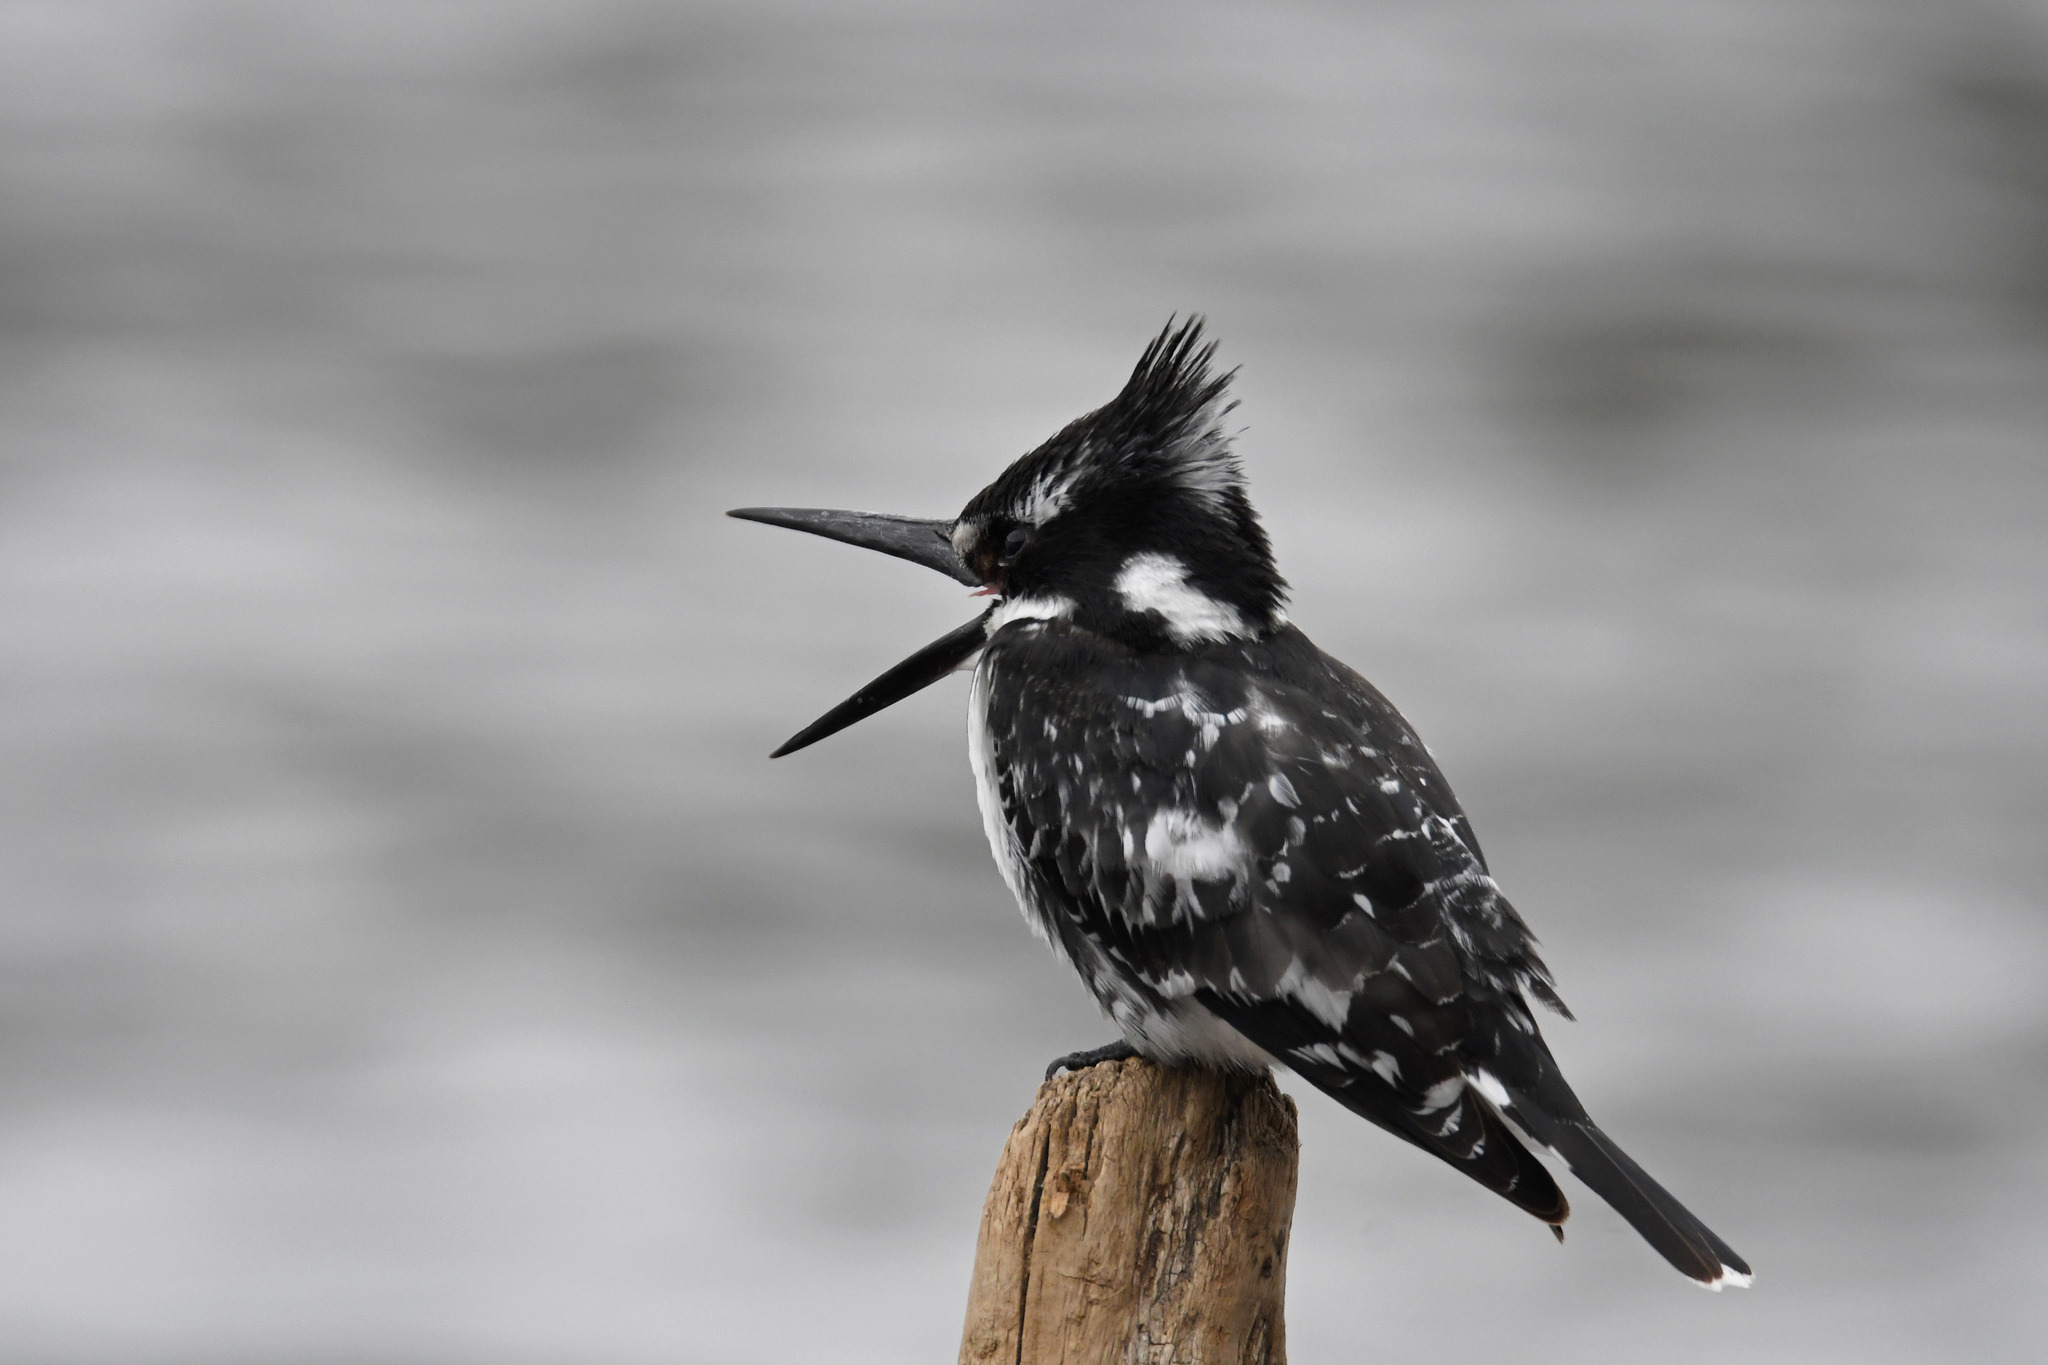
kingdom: Animalia
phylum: Chordata
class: Aves
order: Coraciiformes
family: Alcedinidae
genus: Ceryle
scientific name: Ceryle rudis
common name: Pied kingfisher
